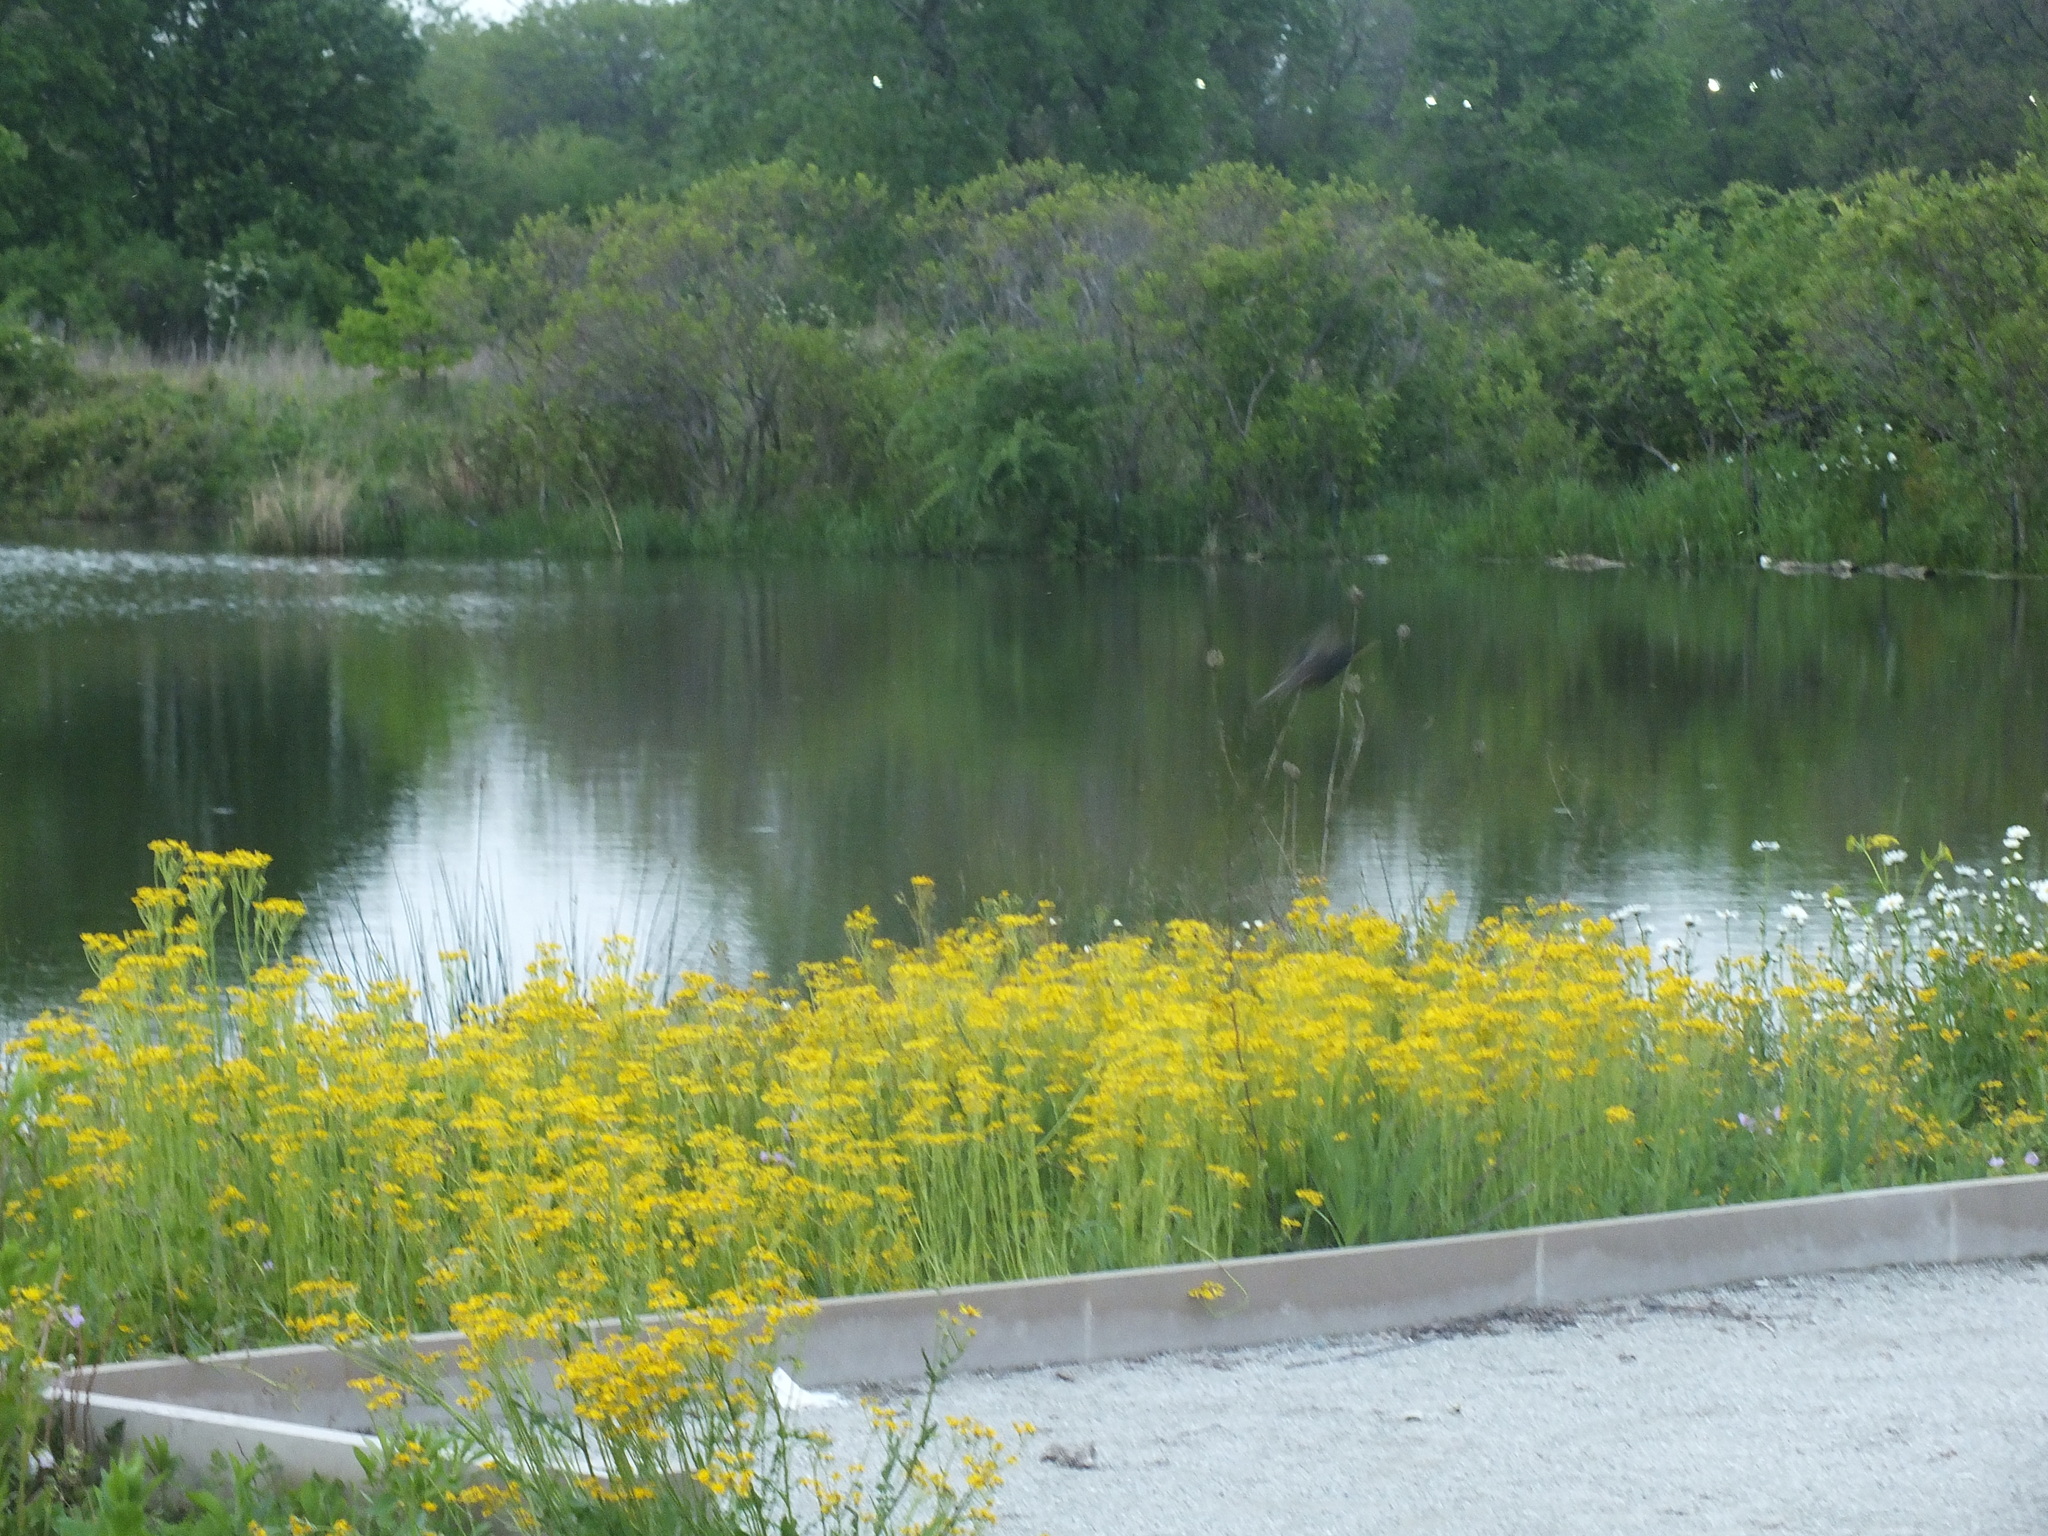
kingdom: Animalia
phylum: Chordata
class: Aves
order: Passeriformes
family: Sturnidae
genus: Sturnus
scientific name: Sturnus vulgaris
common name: Common starling
